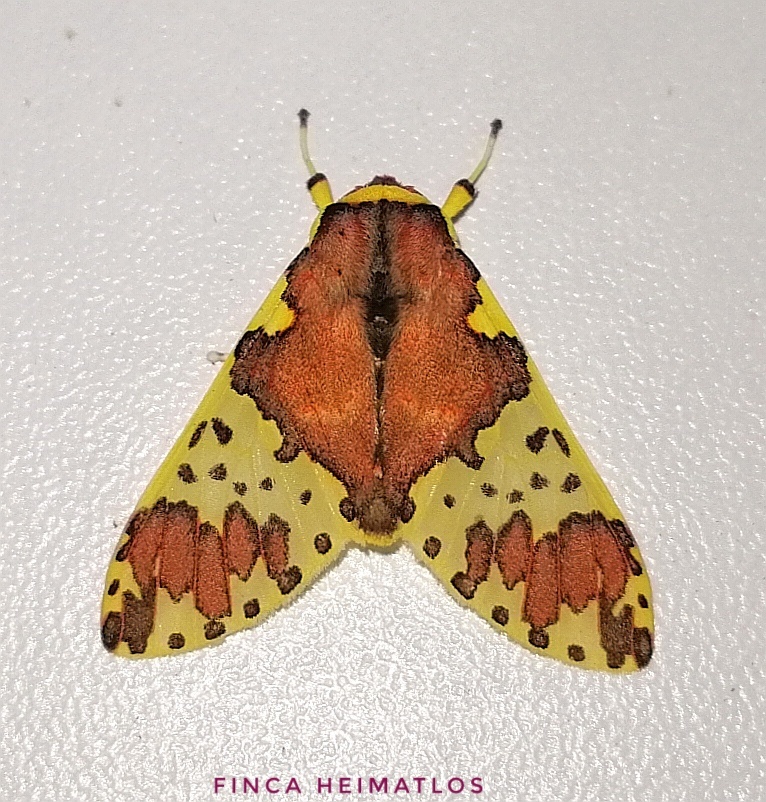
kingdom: Animalia
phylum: Arthropoda
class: Insecta
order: Lepidoptera
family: Erebidae
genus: Amaxia
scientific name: Amaxia beata
